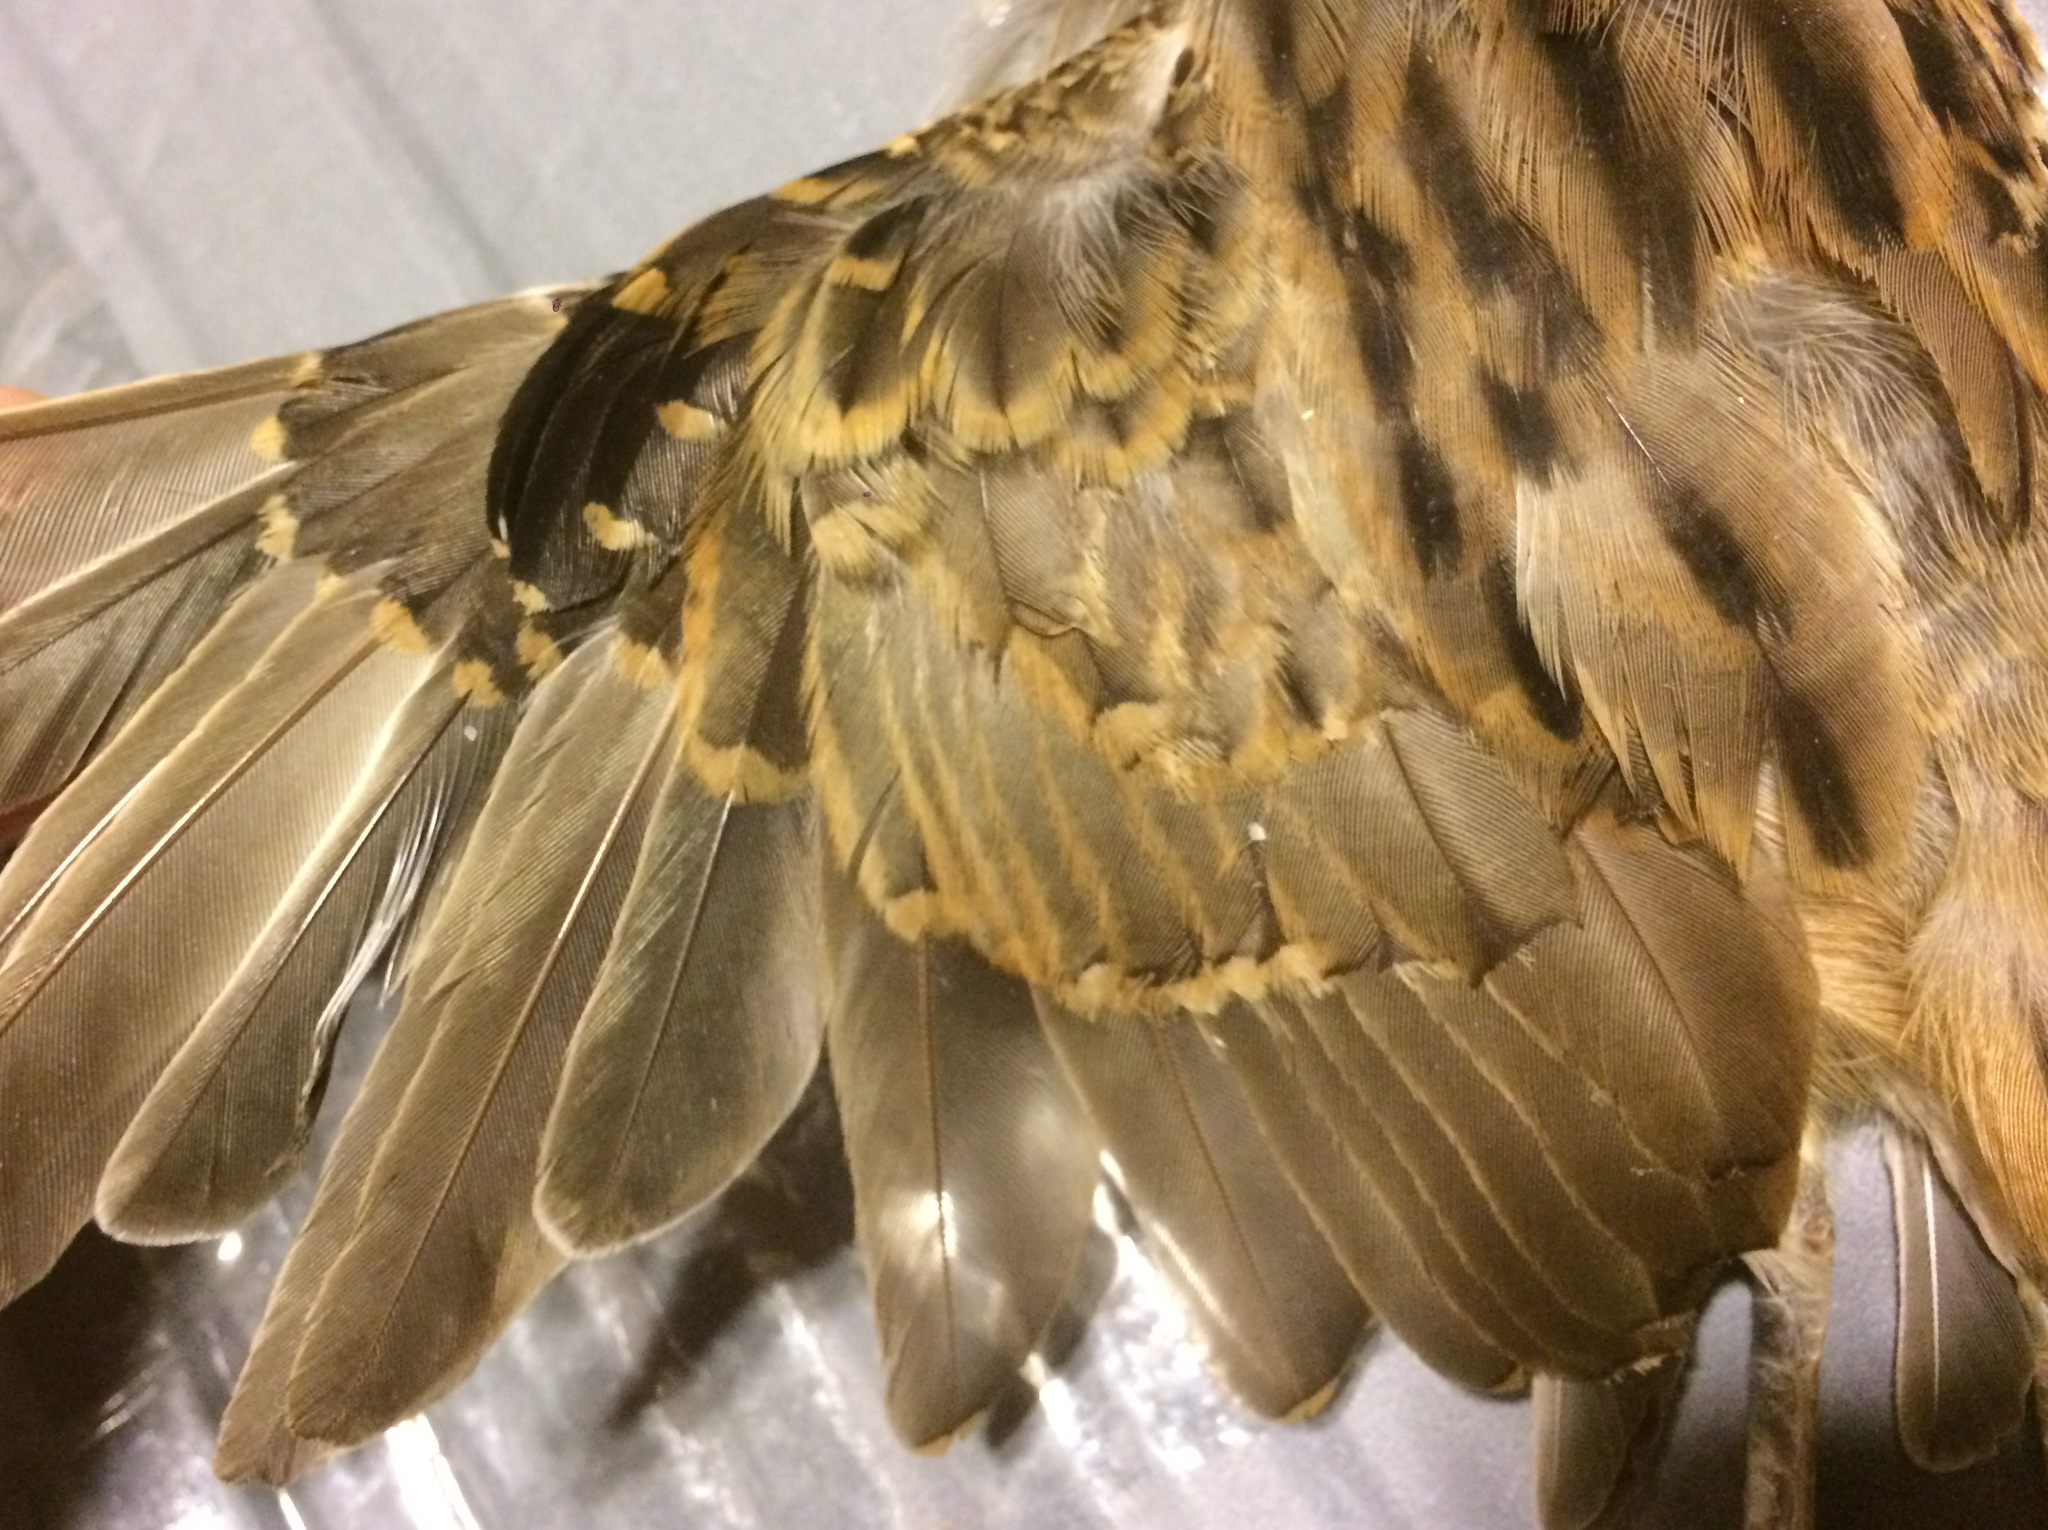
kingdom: Animalia
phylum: Chordata
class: Aves
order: Cuculiformes
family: Cuculidae
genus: Tapera
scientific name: Tapera naevia
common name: Striped cuckoo
